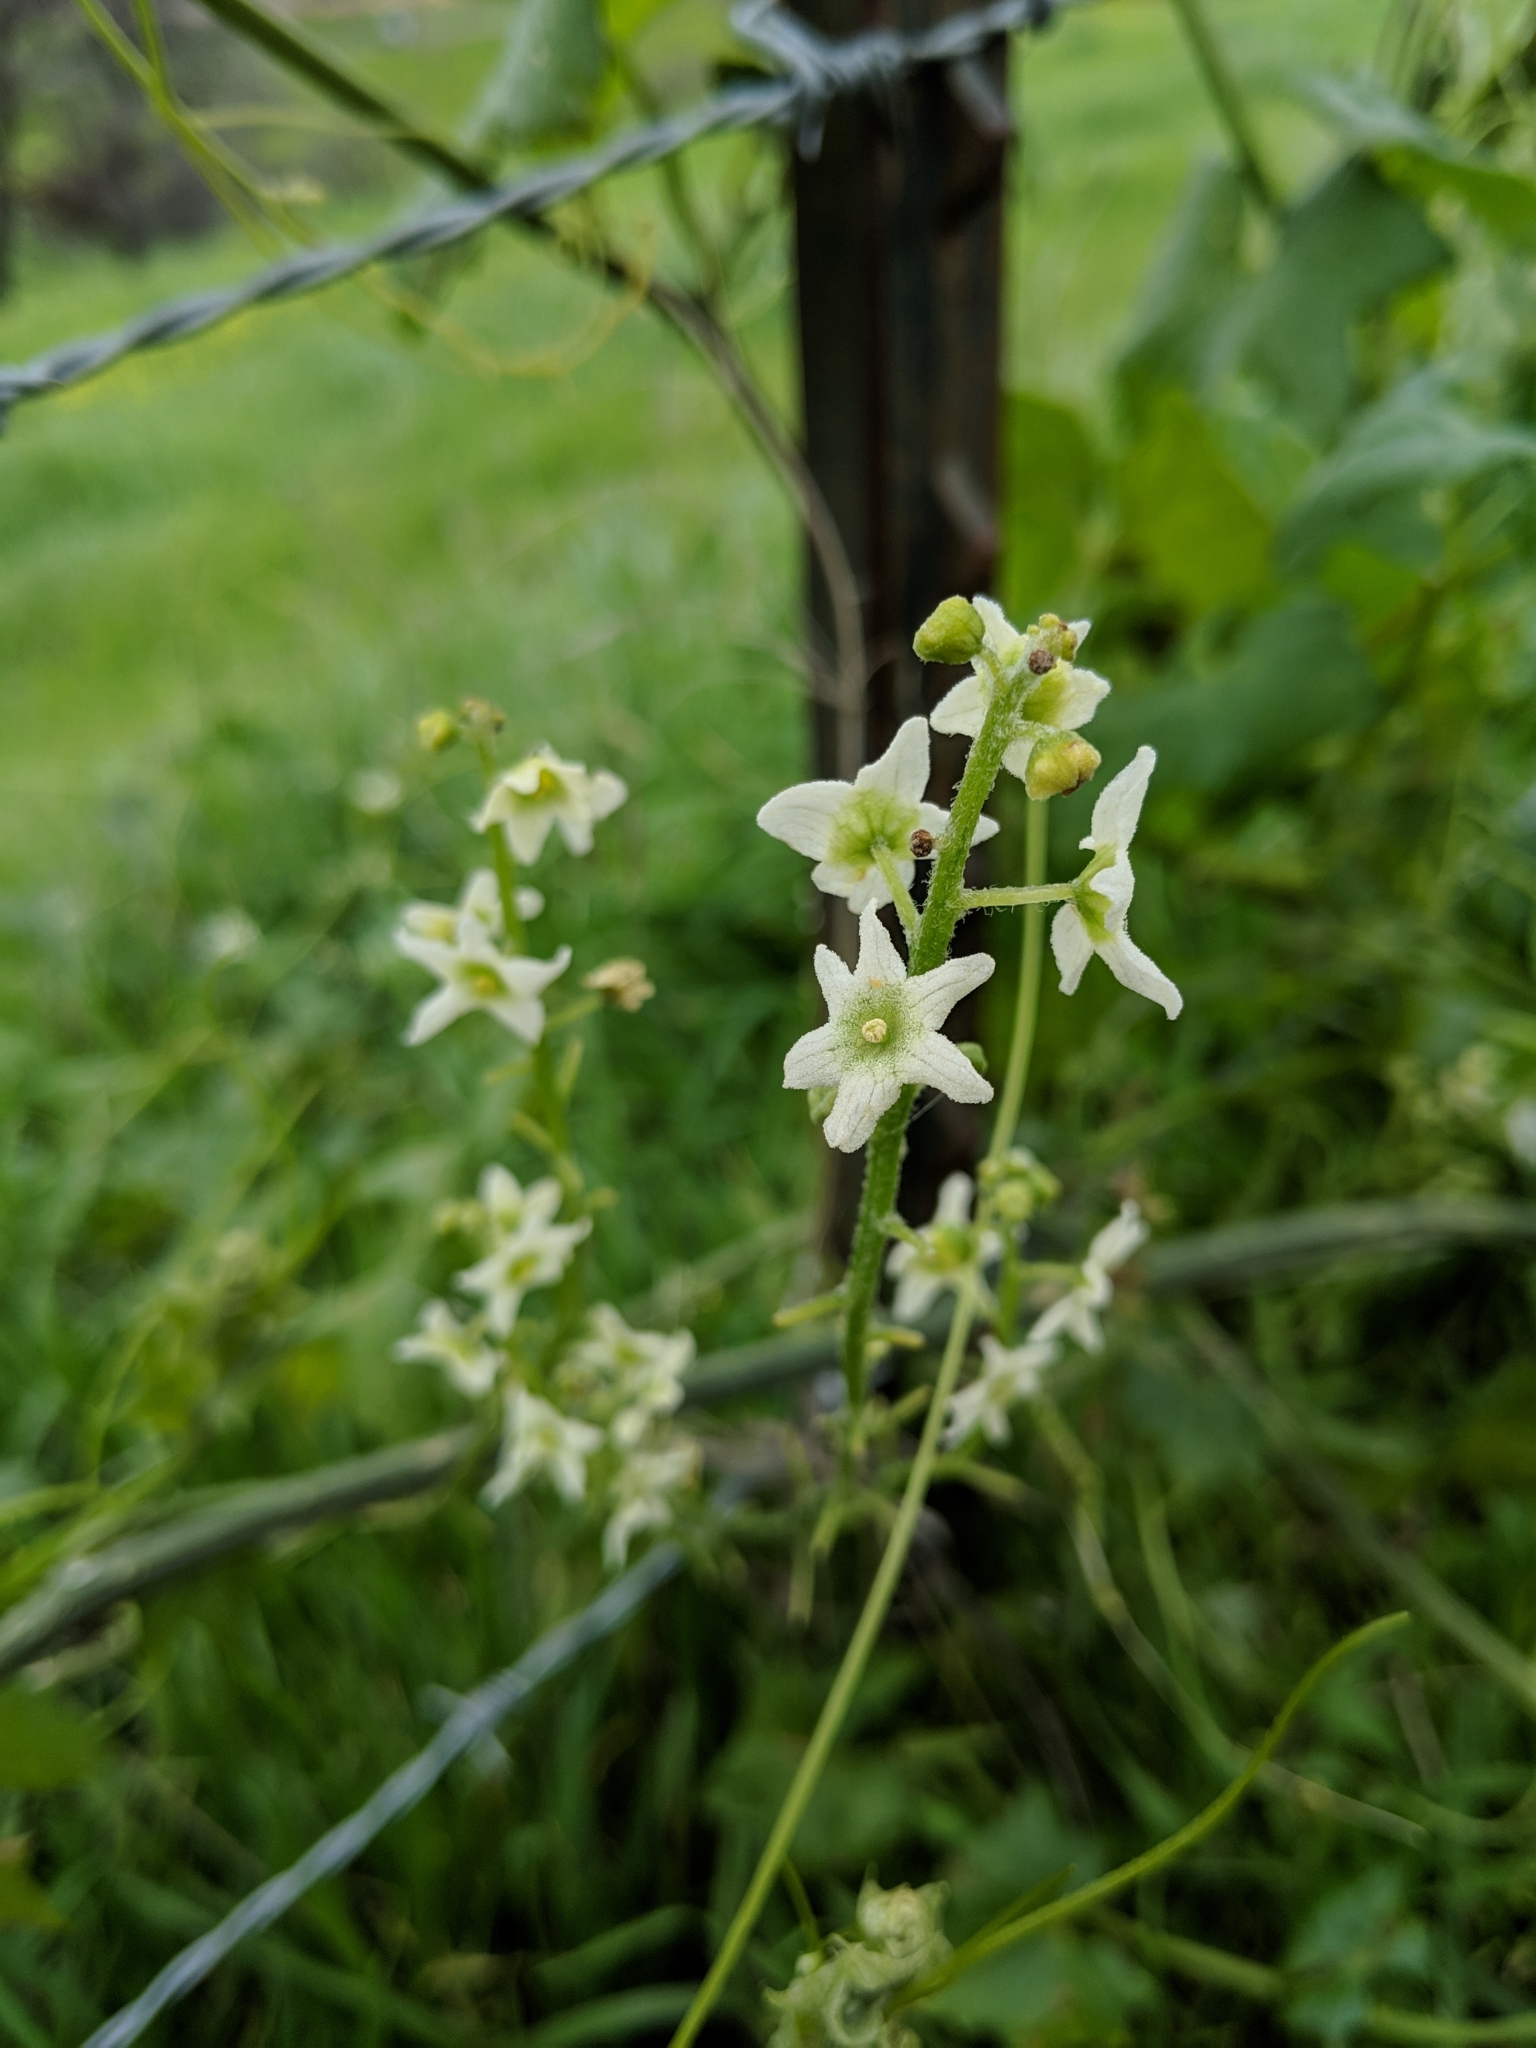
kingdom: Plantae
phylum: Tracheophyta
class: Magnoliopsida
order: Cucurbitales
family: Cucurbitaceae
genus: Marah
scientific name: Marah fabacea
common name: California manroot
